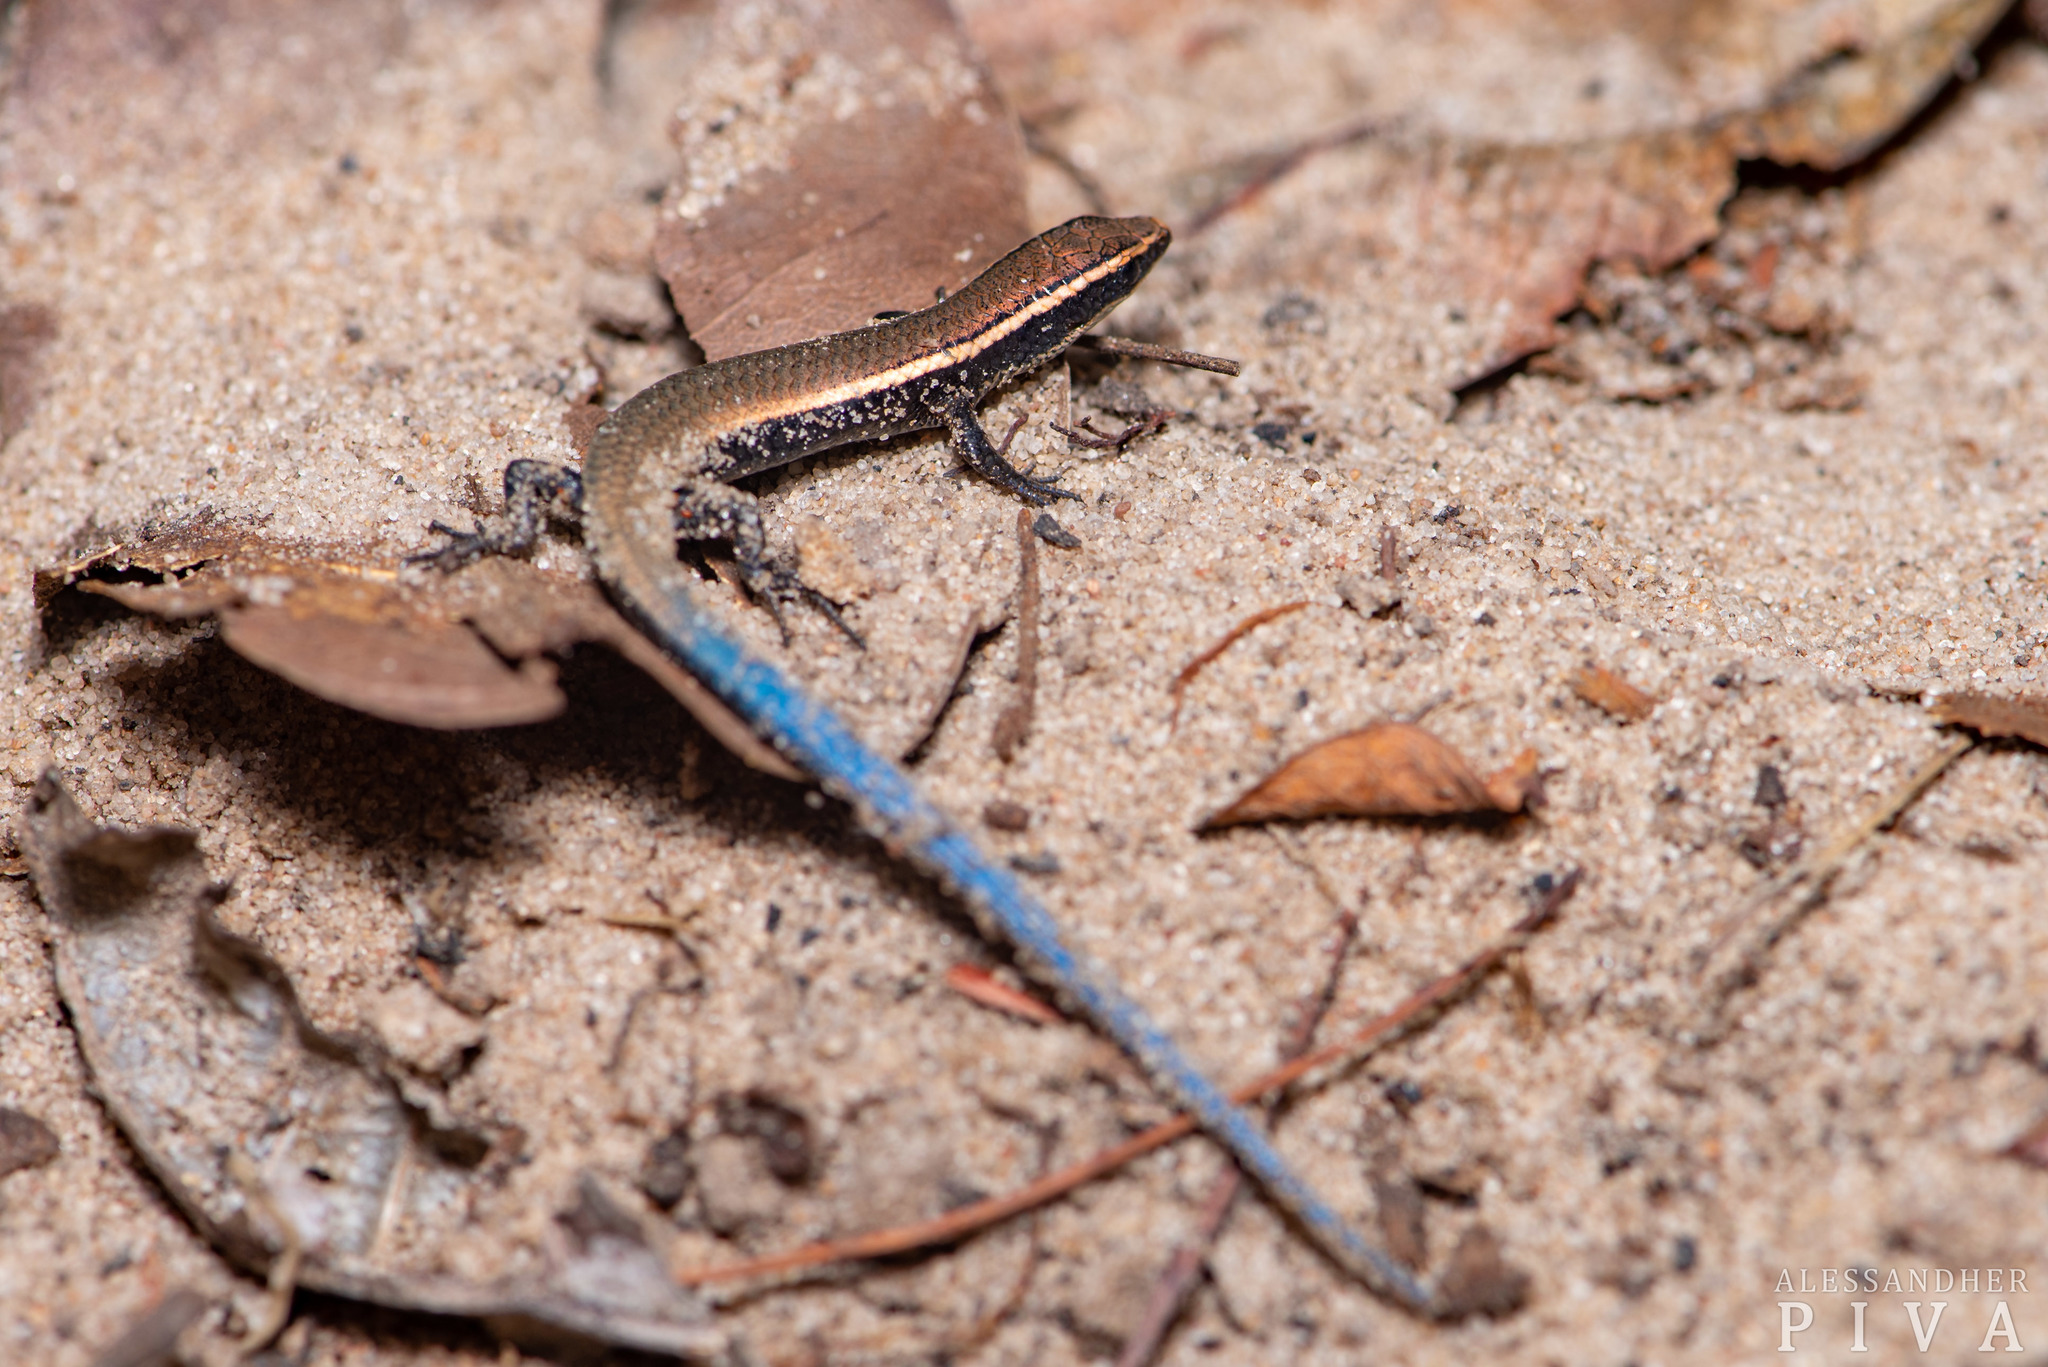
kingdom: Animalia
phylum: Chordata
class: Squamata
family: Gymnophthalmidae
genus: Micrablepharus
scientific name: Micrablepharus maximiliani
